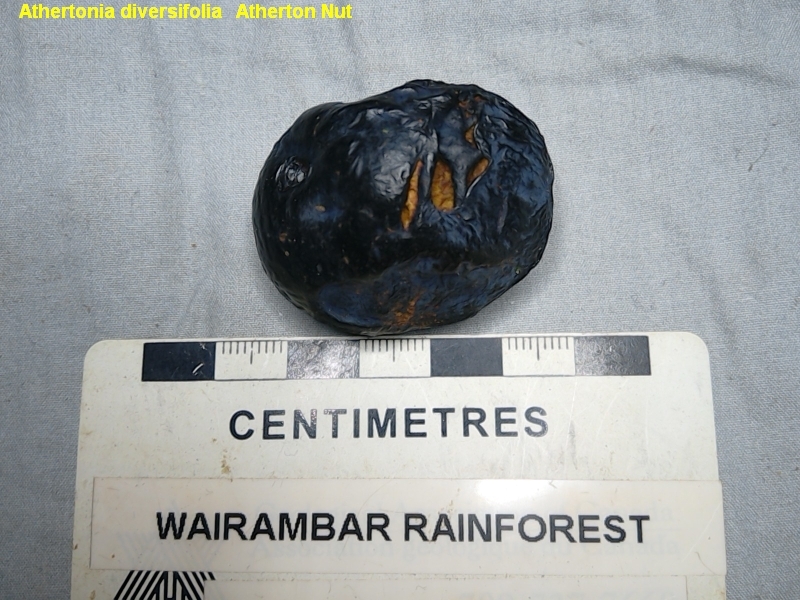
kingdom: Plantae
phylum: Tracheophyta
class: Magnoliopsida
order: Proteales
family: Proteaceae
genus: Athertonia
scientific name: Athertonia diversifolia
